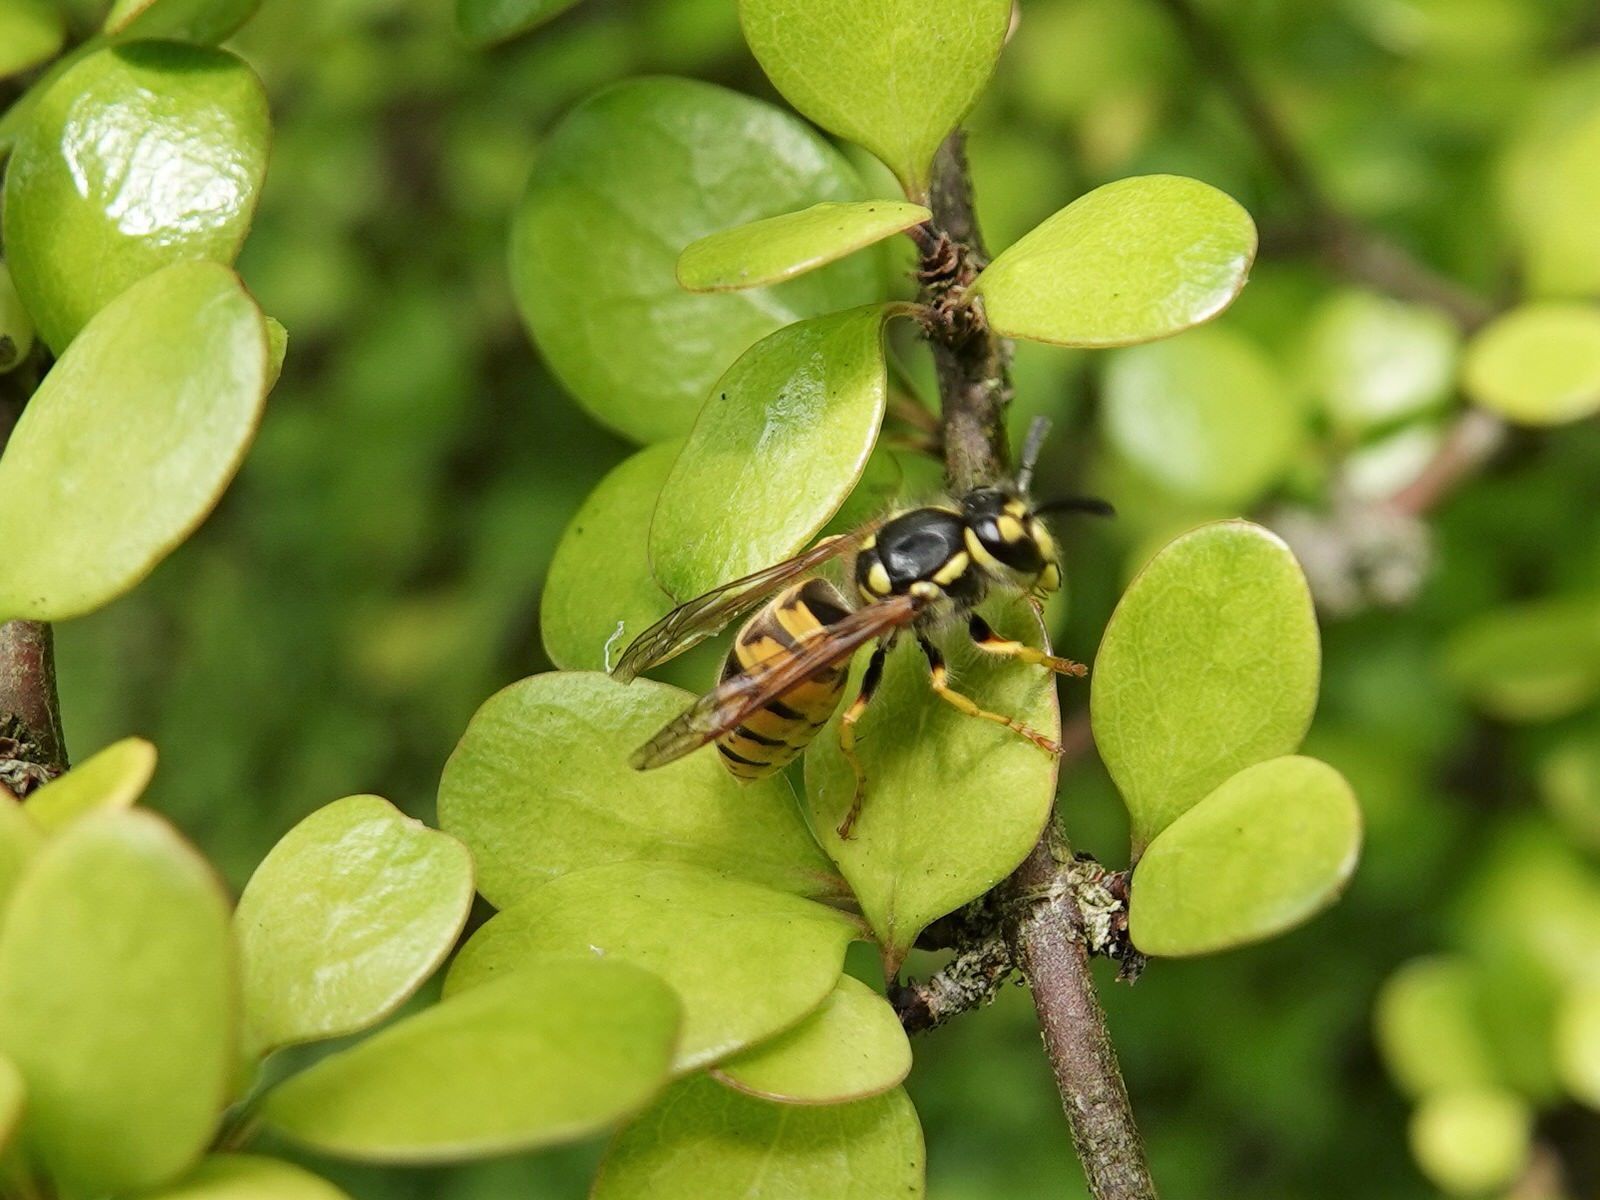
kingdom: Animalia
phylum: Arthropoda
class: Insecta
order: Hymenoptera
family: Vespidae
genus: Vespula
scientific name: Vespula germanica
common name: German wasp
